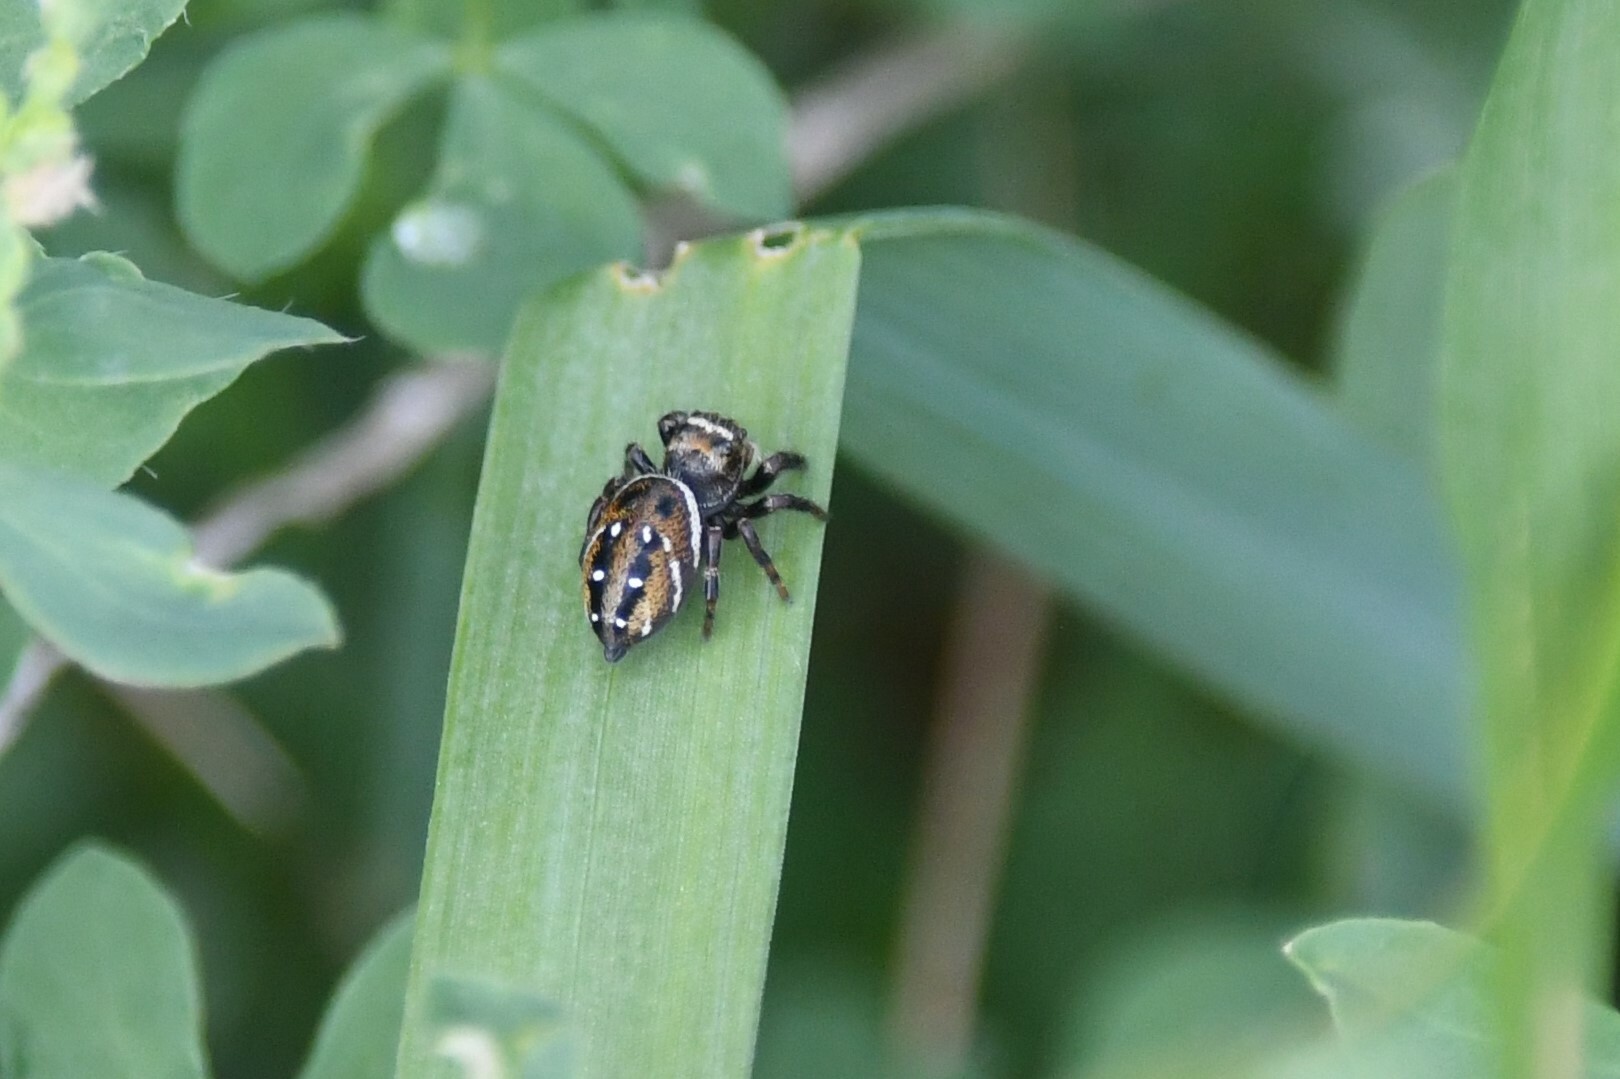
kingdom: Animalia
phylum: Arthropoda
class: Arachnida
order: Araneae
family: Salticidae
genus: Phidippus
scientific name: Phidippus clarus
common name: Brilliant jumping spider
